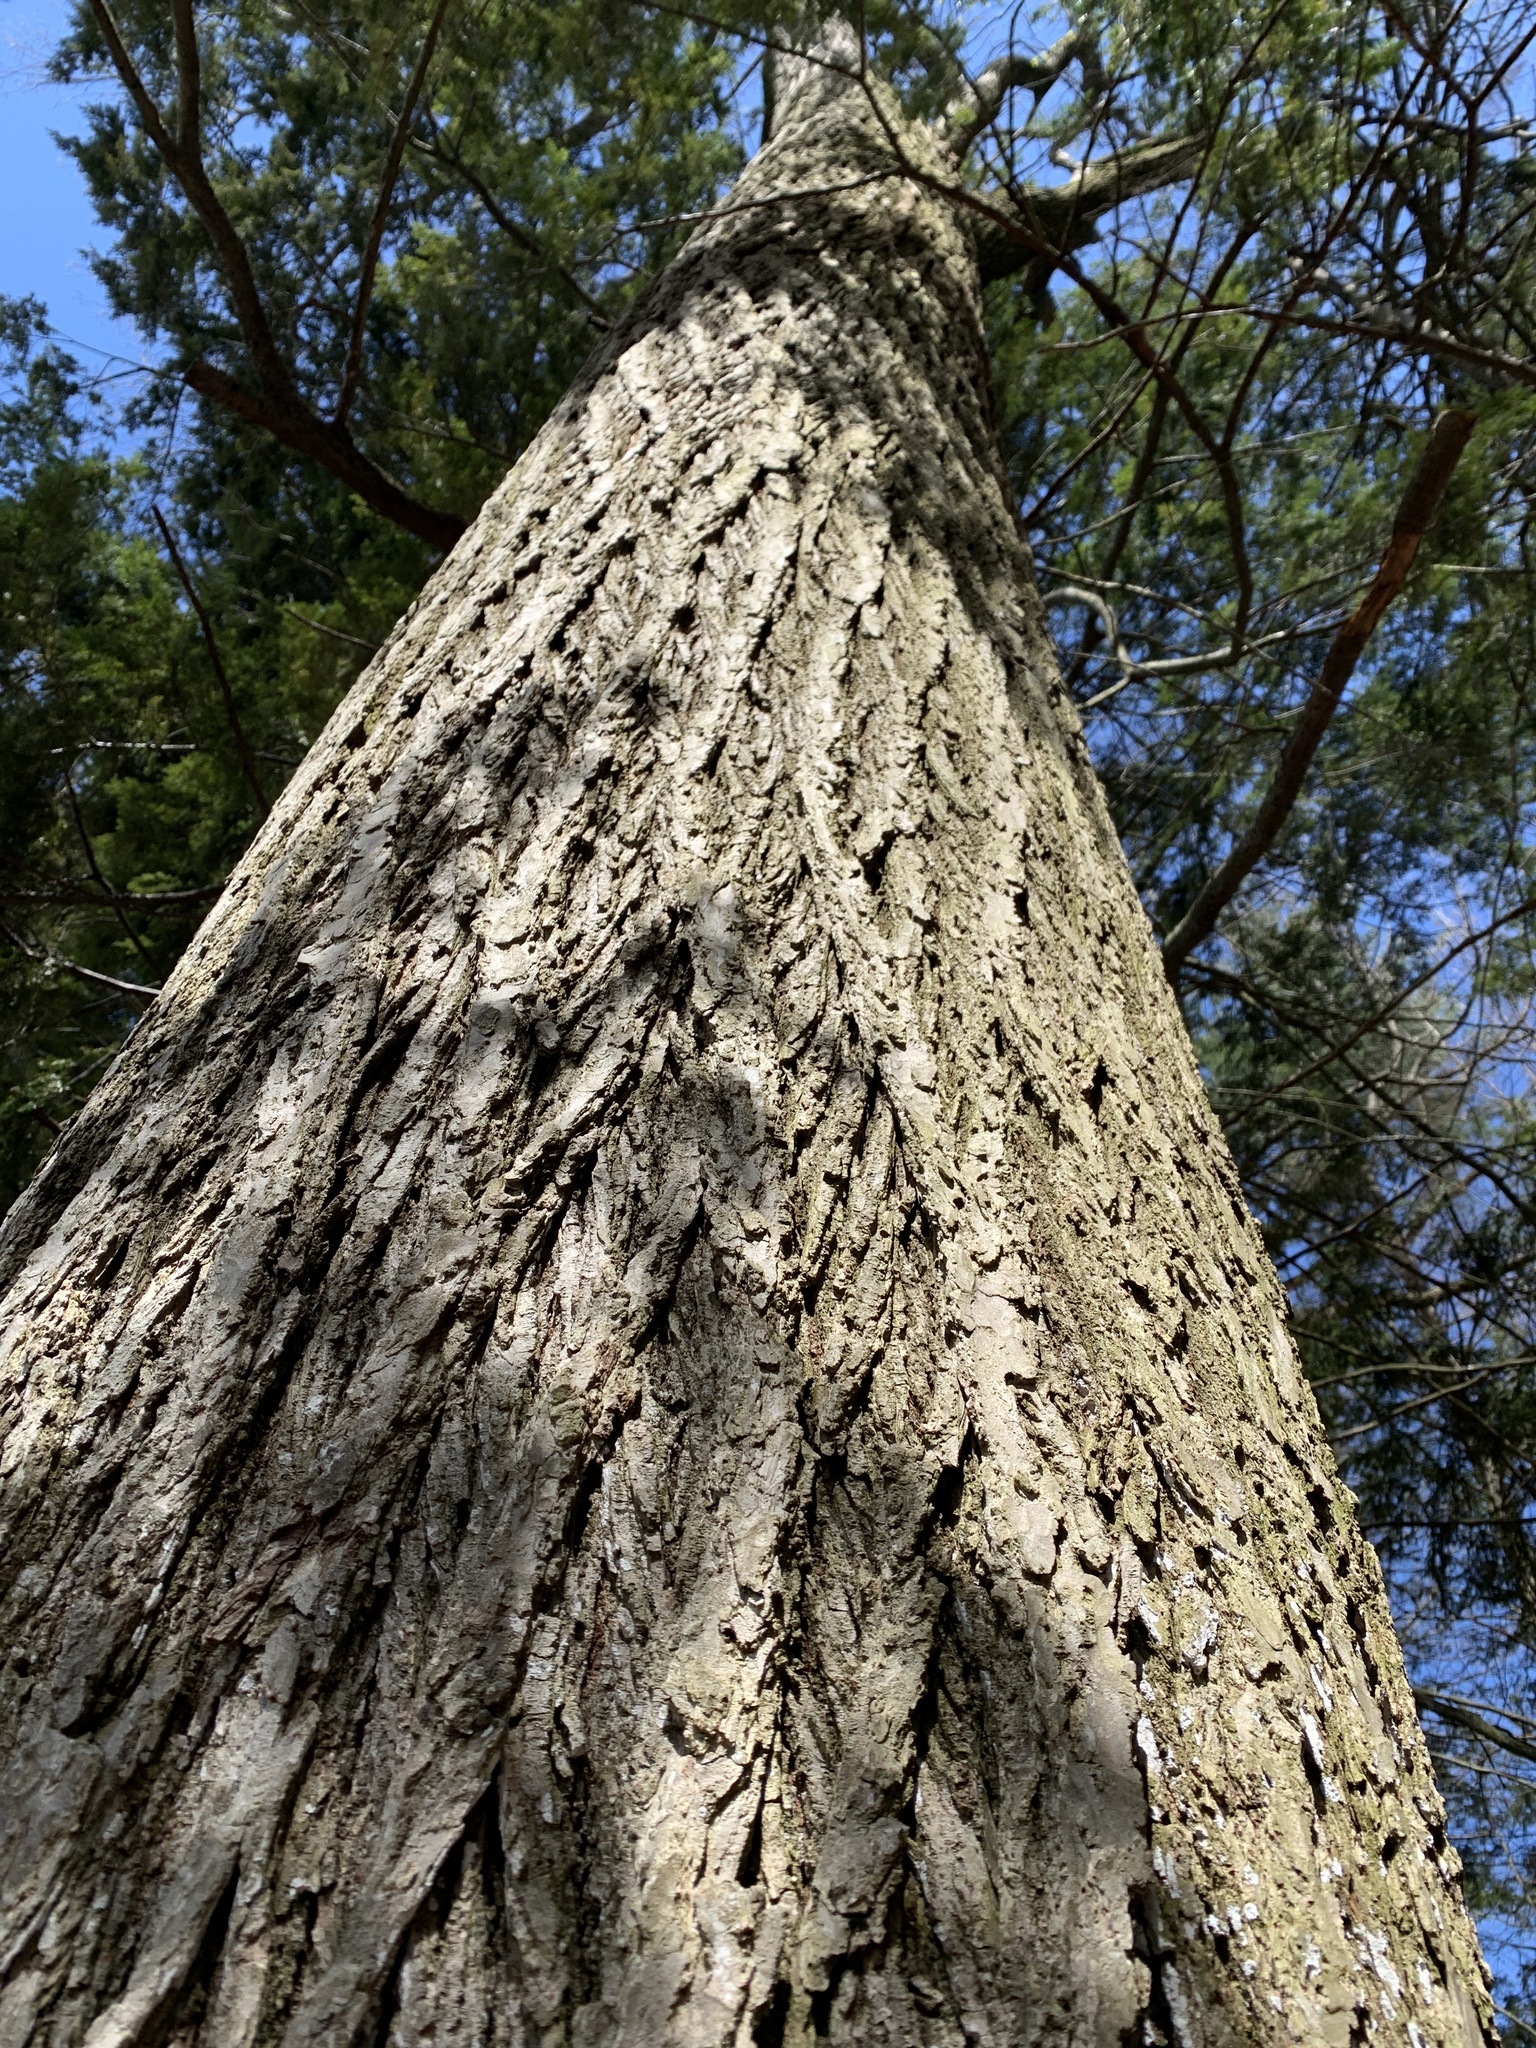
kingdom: Plantae
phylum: Tracheophyta
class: Magnoliopsida
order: Fagales
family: Fagaceae
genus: Quercus
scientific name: Quercus rubra
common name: Red oak
